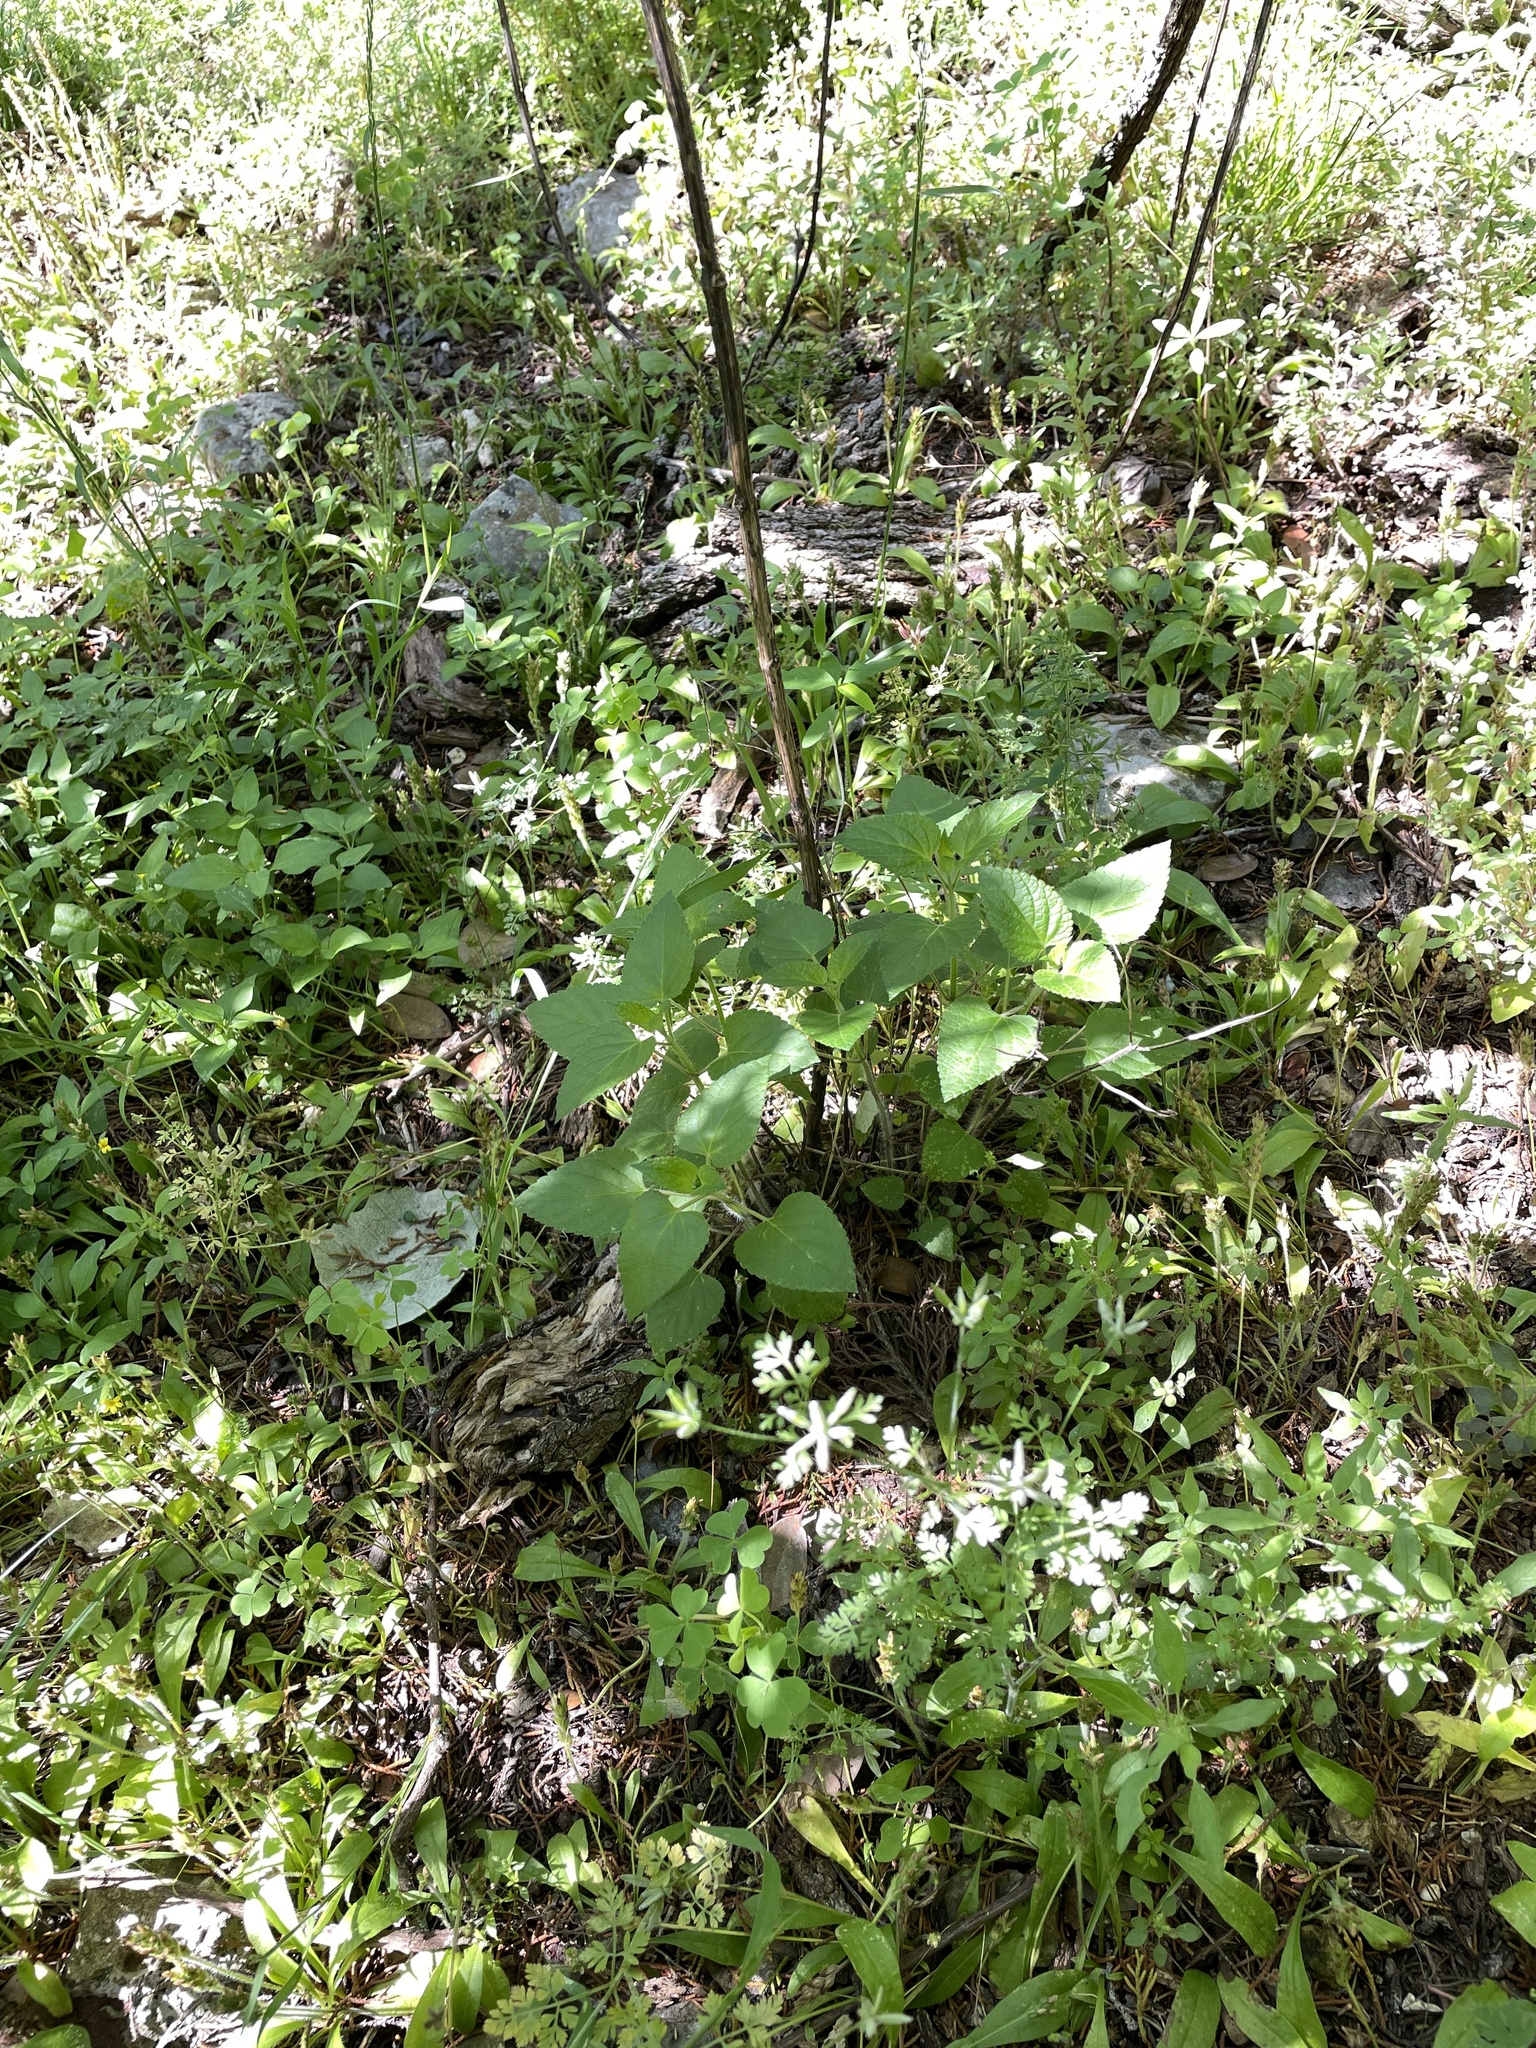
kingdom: Plantae
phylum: Tracheophyta
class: Magnoliopsida
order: Lamiales
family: Lamiaceae
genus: Salvia
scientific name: Salvia coccinea
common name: Blood sage
